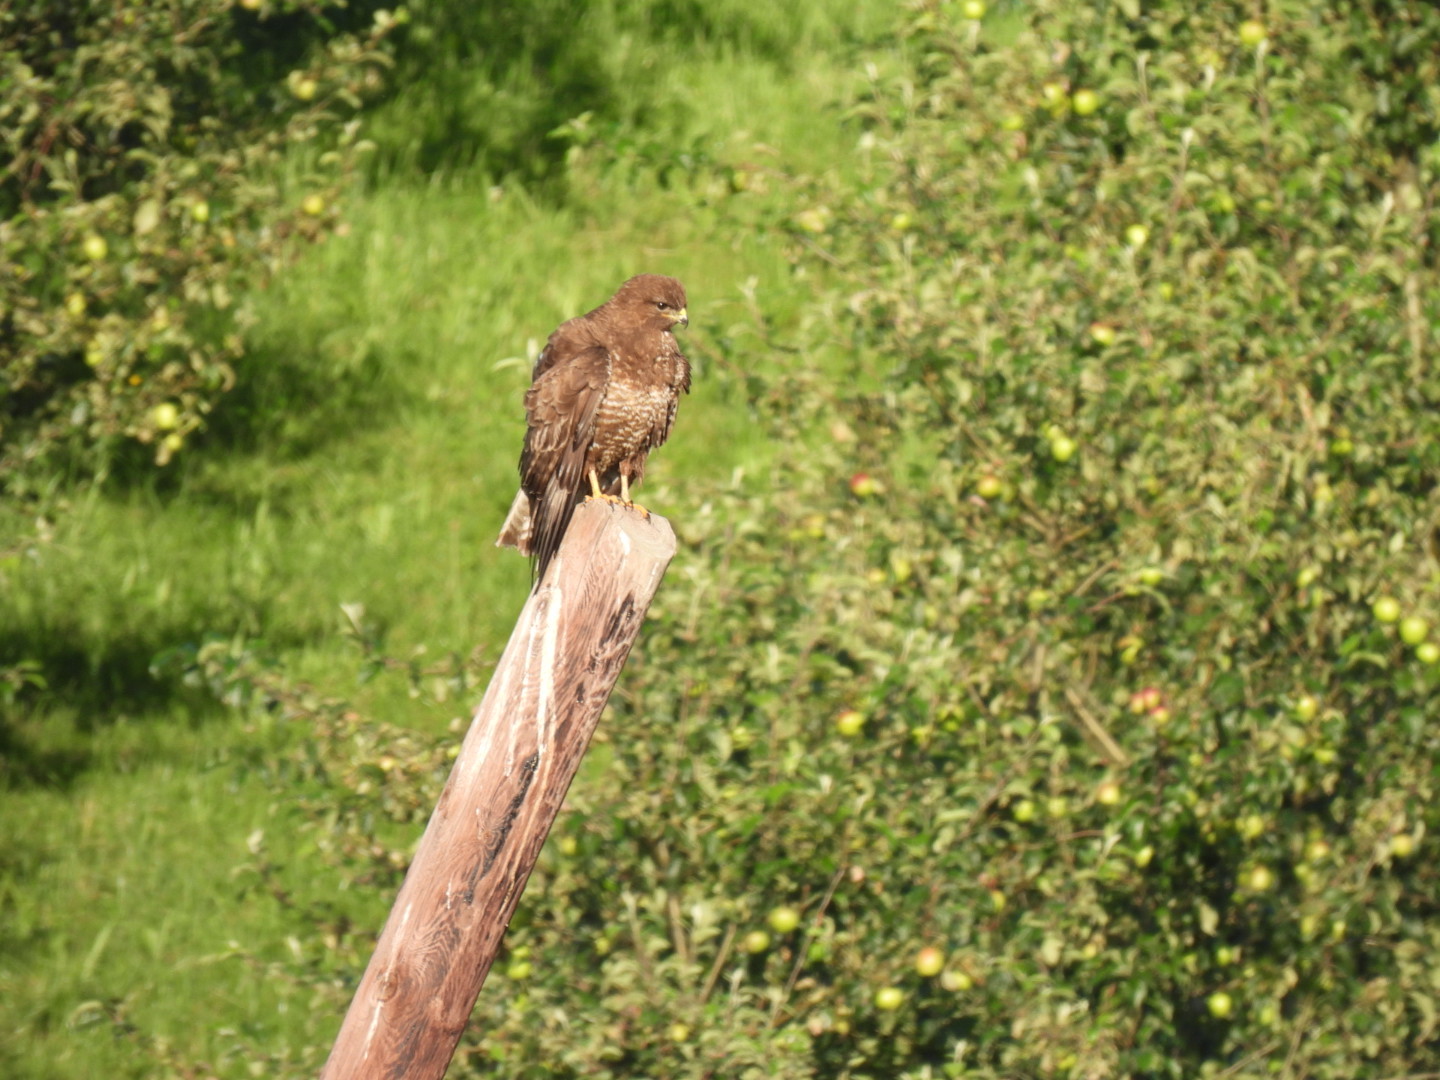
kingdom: Animalia
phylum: Chordata
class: Aves
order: Accipitriformes
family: Accipitridae
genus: Buteo
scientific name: Buteo buteo
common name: Common buzzard
